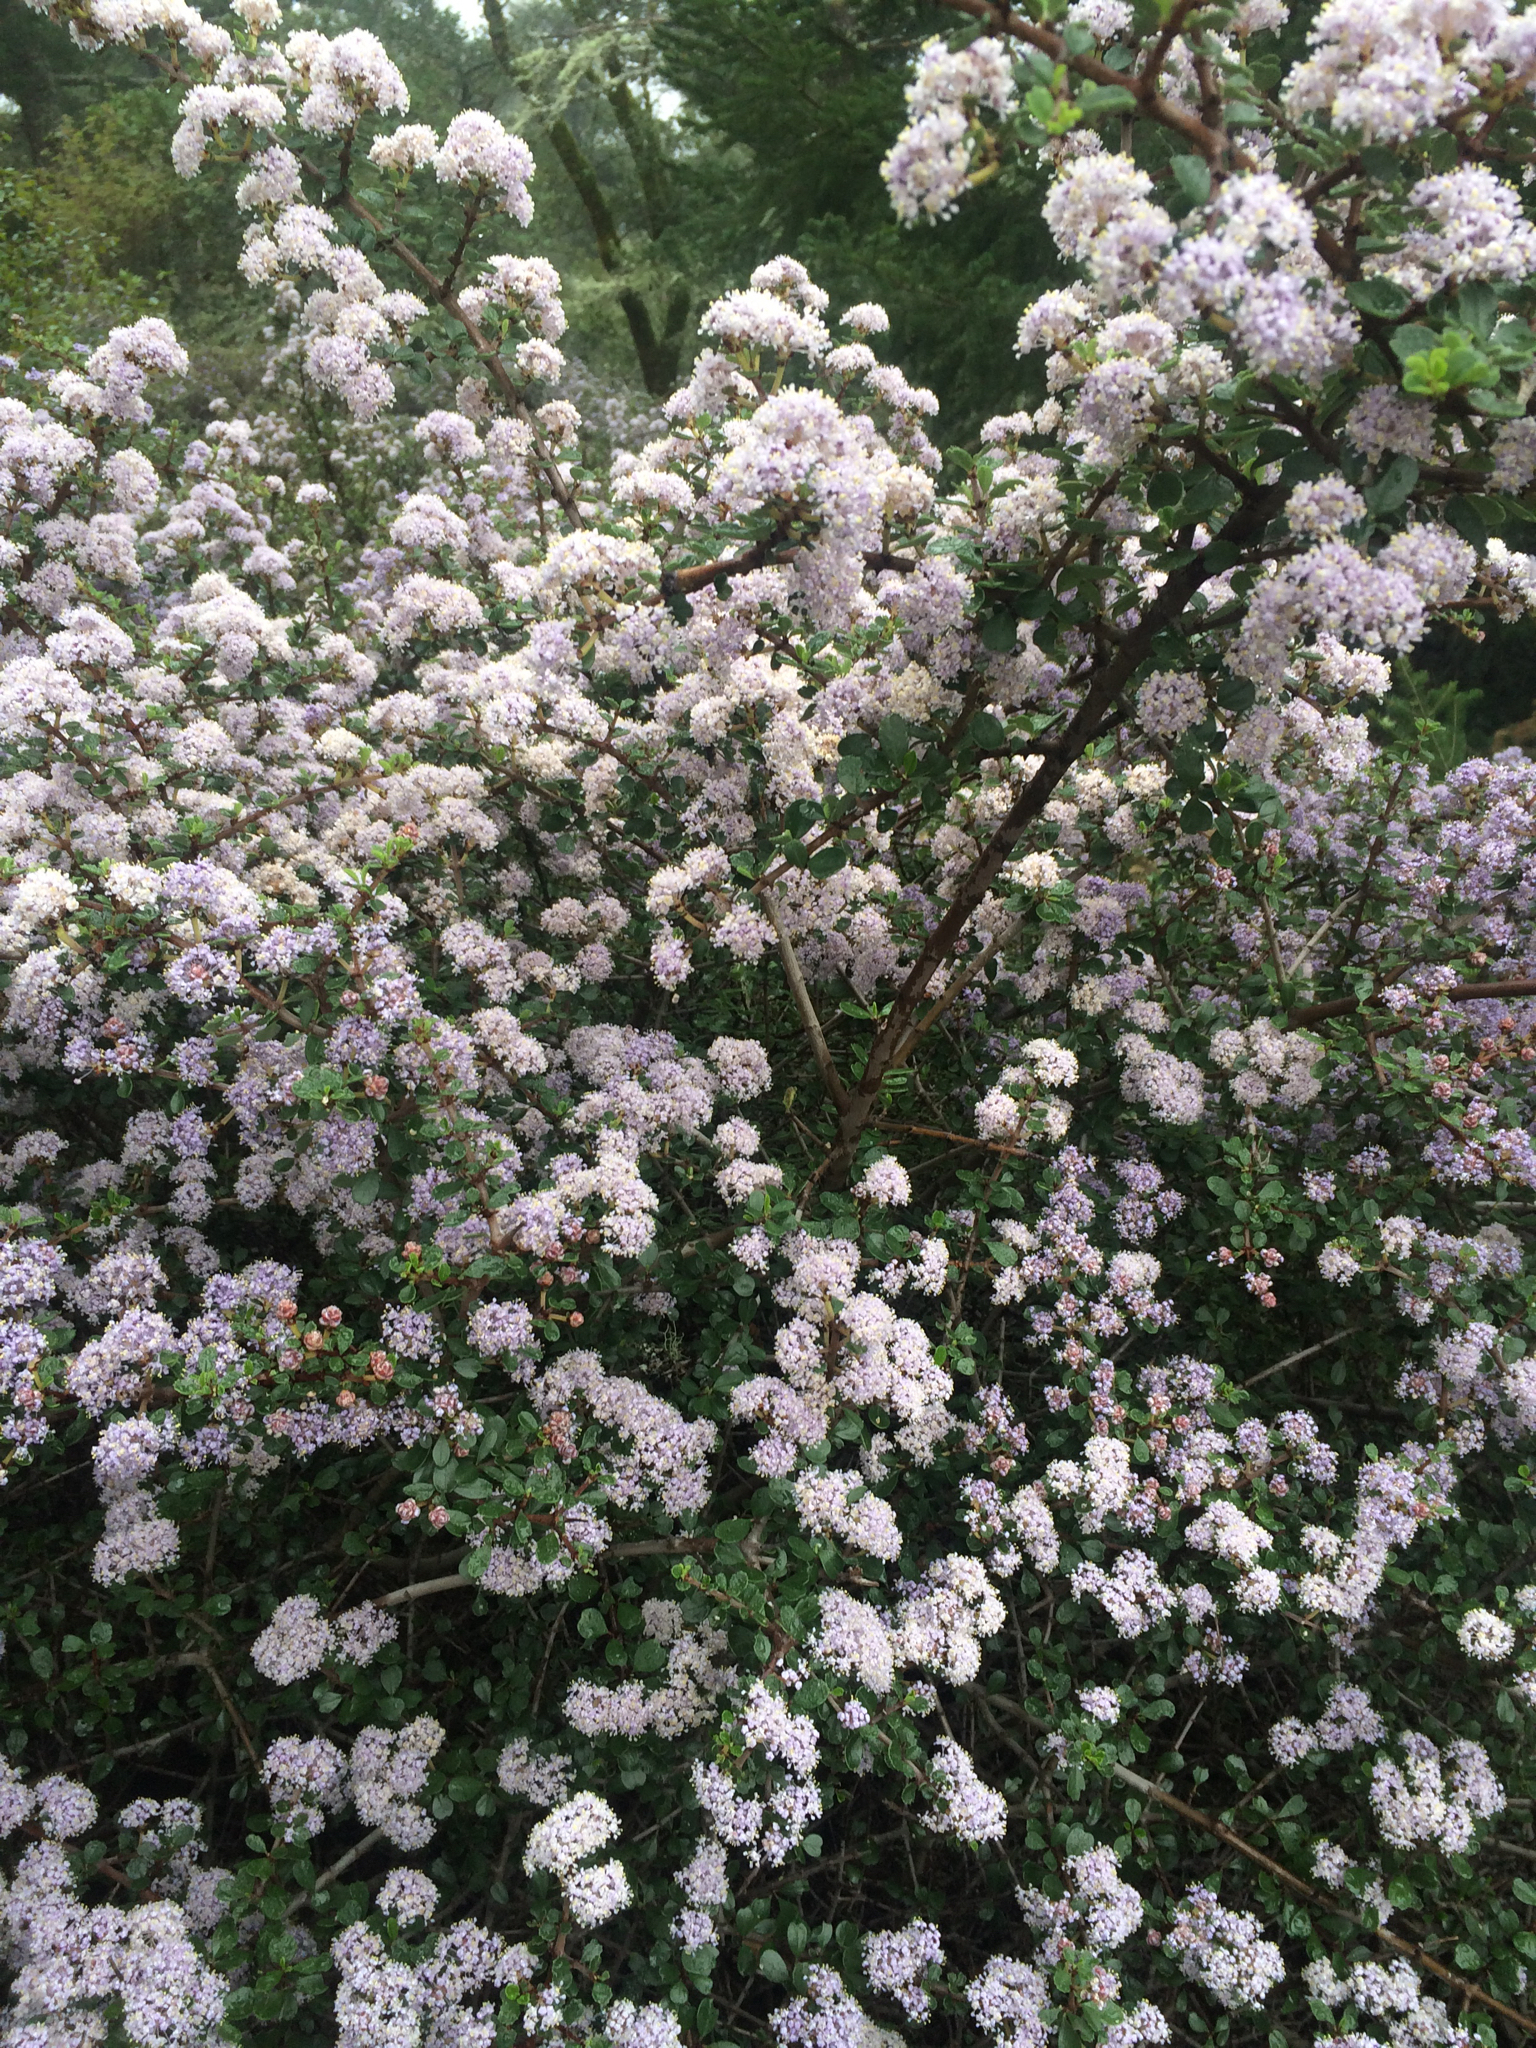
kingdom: Plantae
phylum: Tracheophyta
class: Magnoliopsida
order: Rosales
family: Rhamnaceae
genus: Ceanothus
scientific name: Ceanothus cuneatus
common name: Cuneate ceanothus
